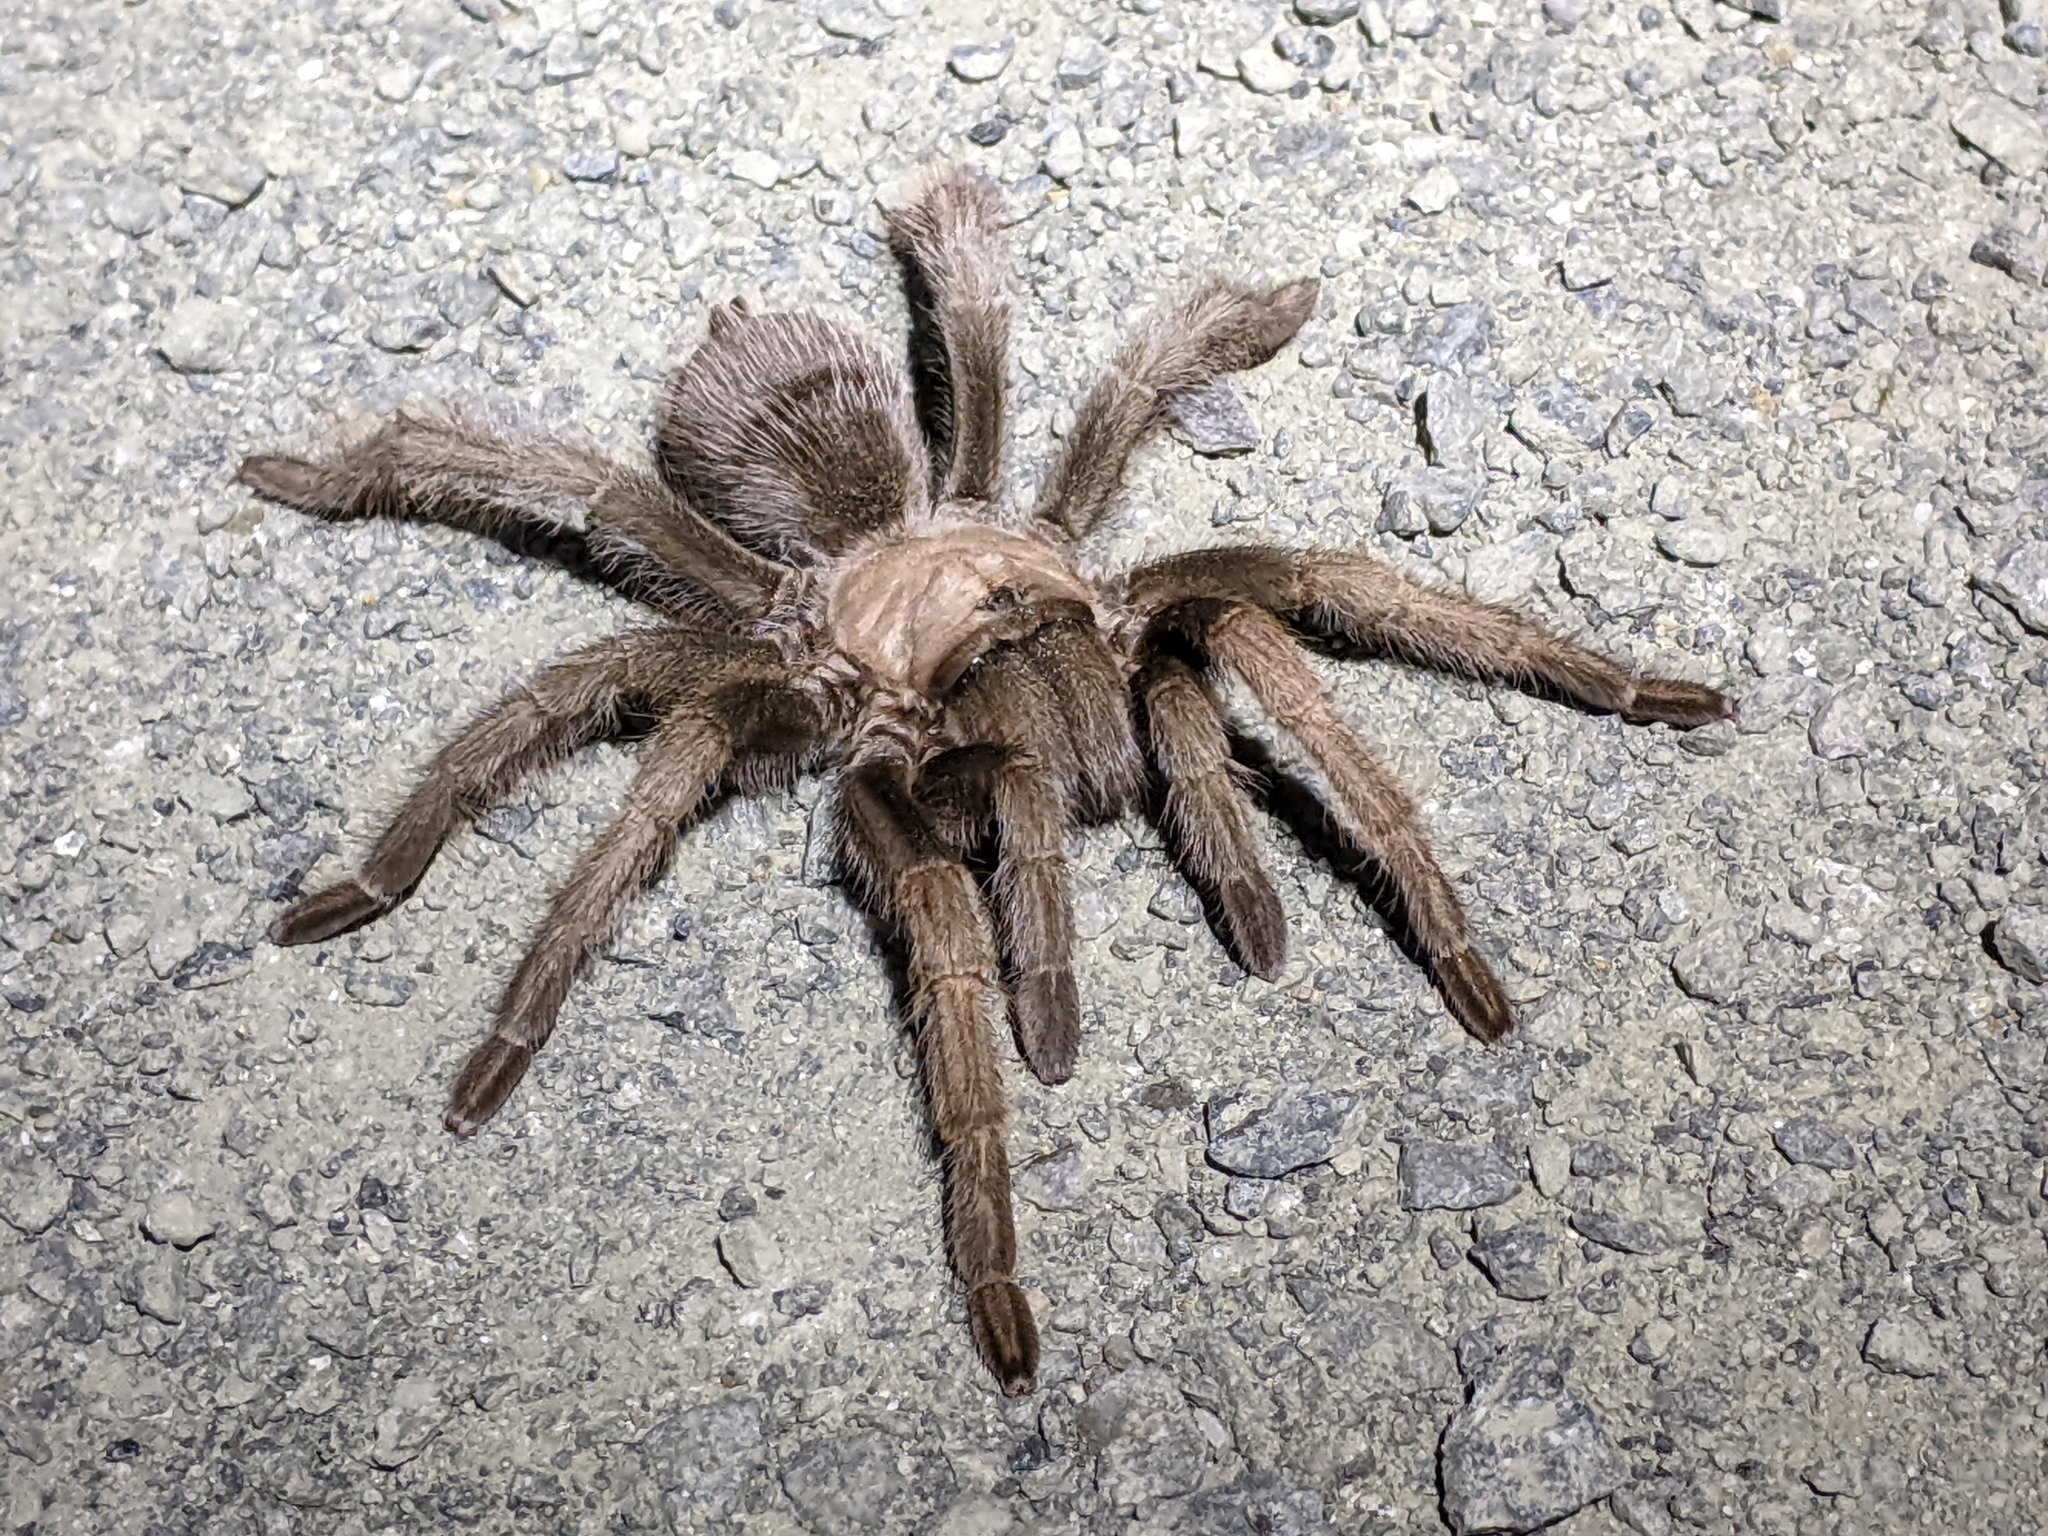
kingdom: Animalia
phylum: Arthropoda
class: Arachnida
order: Araneae
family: Theraphosidae
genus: Aphonopelma
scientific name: Aphonopelma iodius
